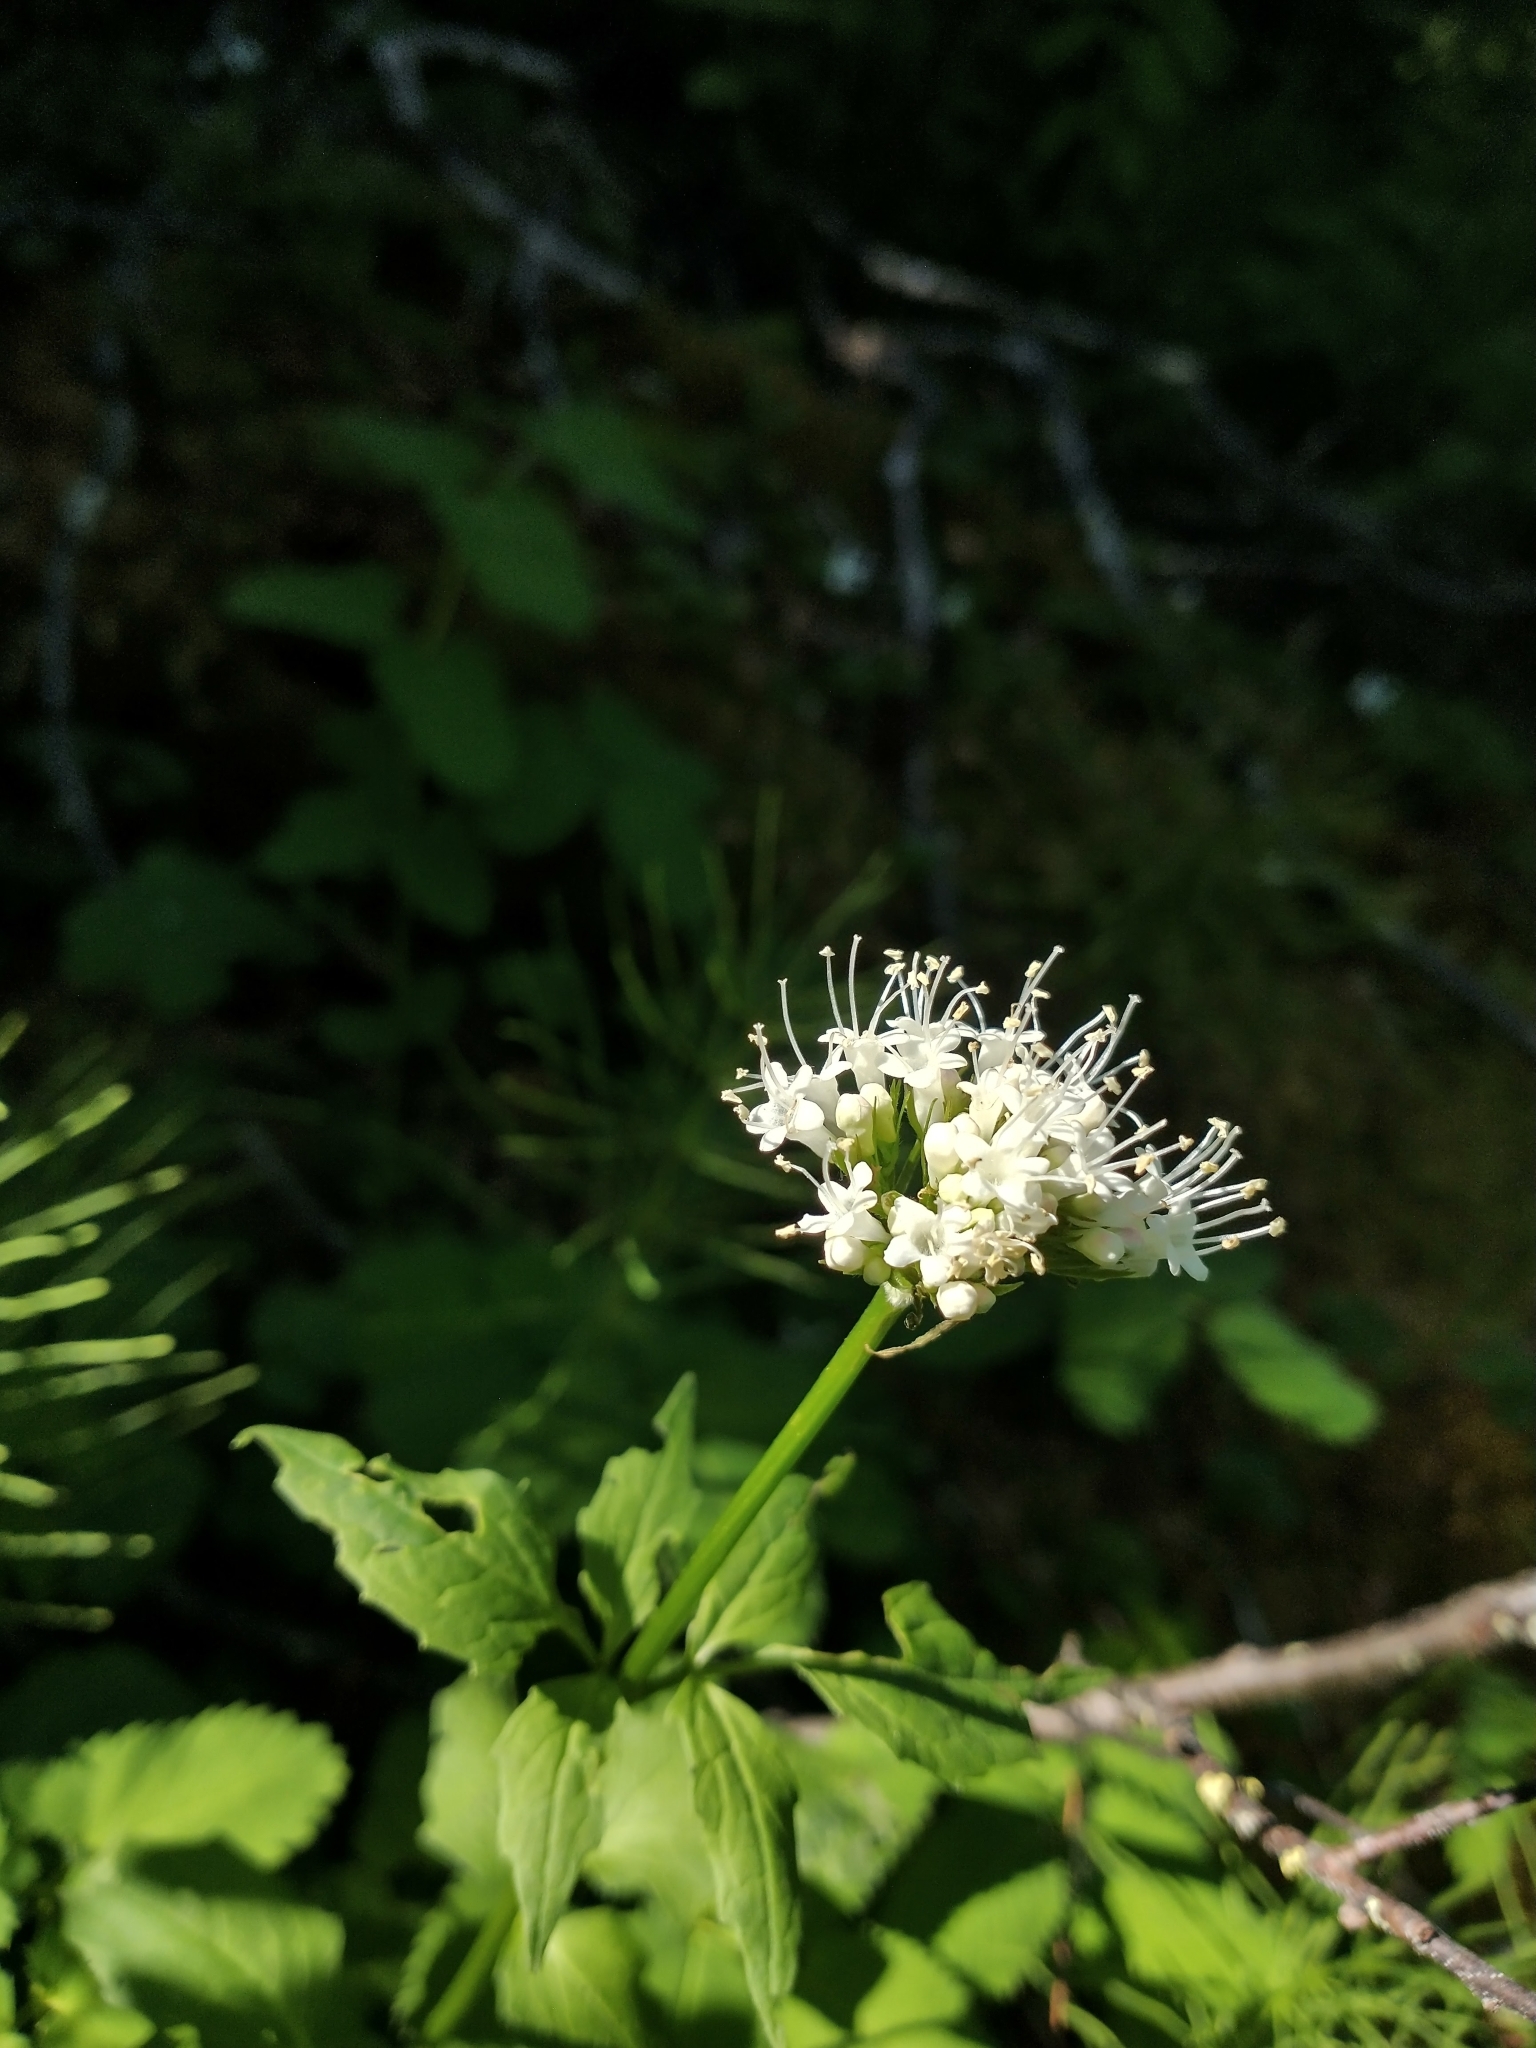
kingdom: Plantae
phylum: Tracheophyta
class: Magnoliopsida
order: Dipsacales
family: Caprifoliaceae
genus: Valeriana
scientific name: Valeriana sitchensis
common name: Pacific valerian
